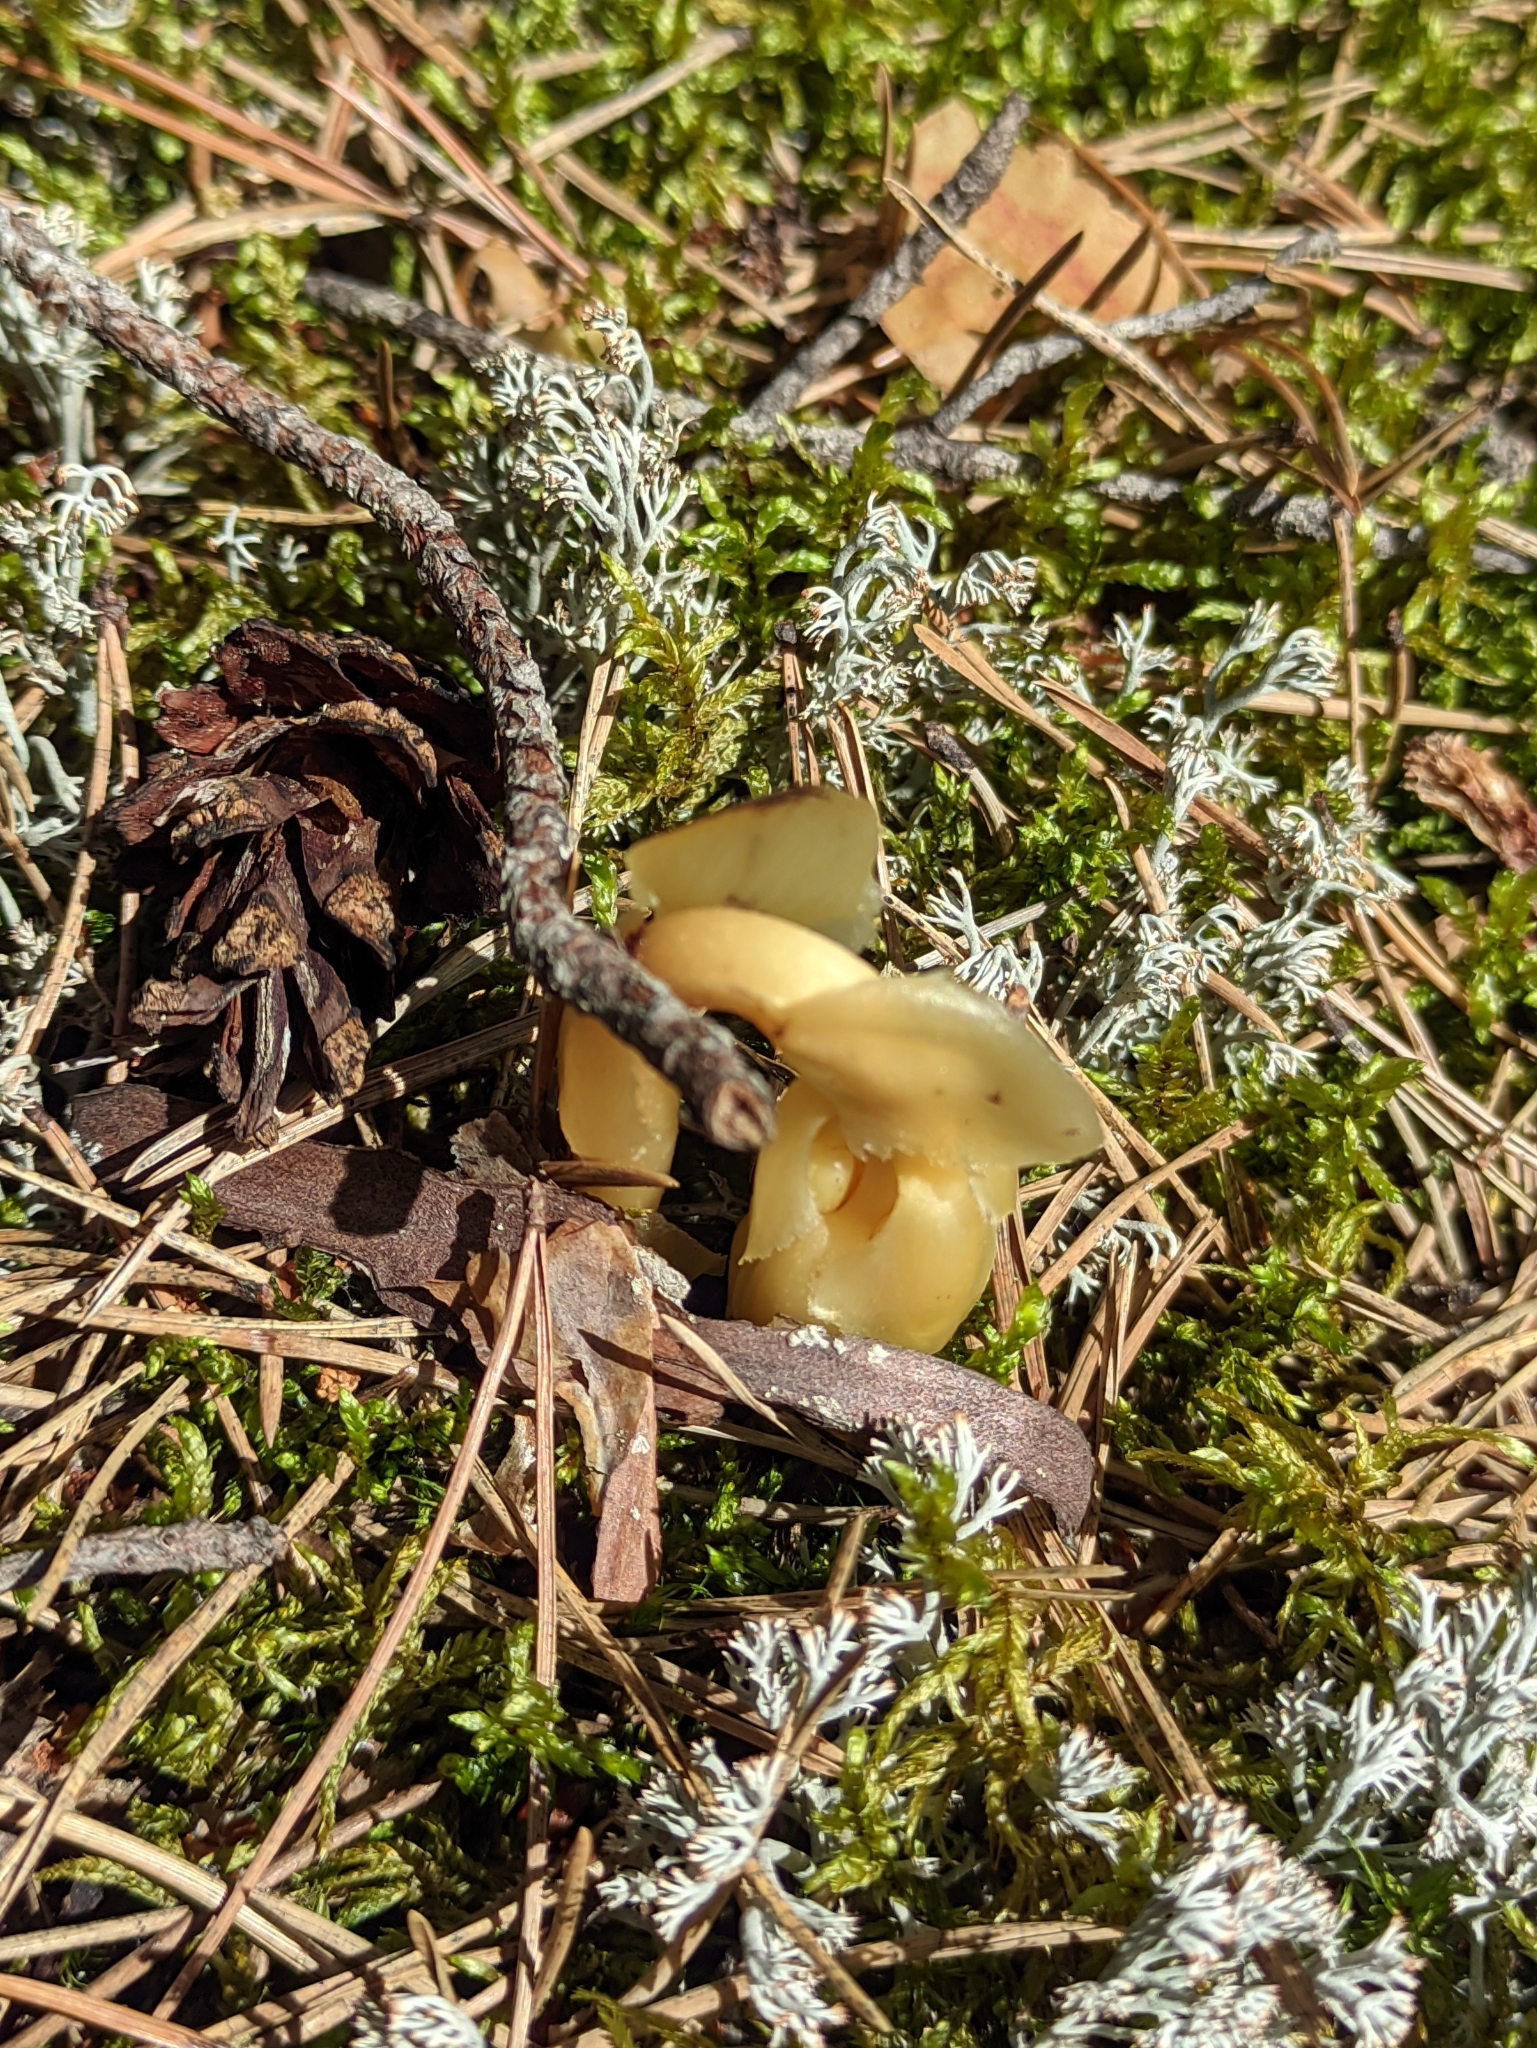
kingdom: Plantae
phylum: Tracheophyta
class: Magnoliopsida
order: Ericales
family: Ericaceae
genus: Hypopitys
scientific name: Hypopitys monotropa
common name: Yellow bird's-nest
